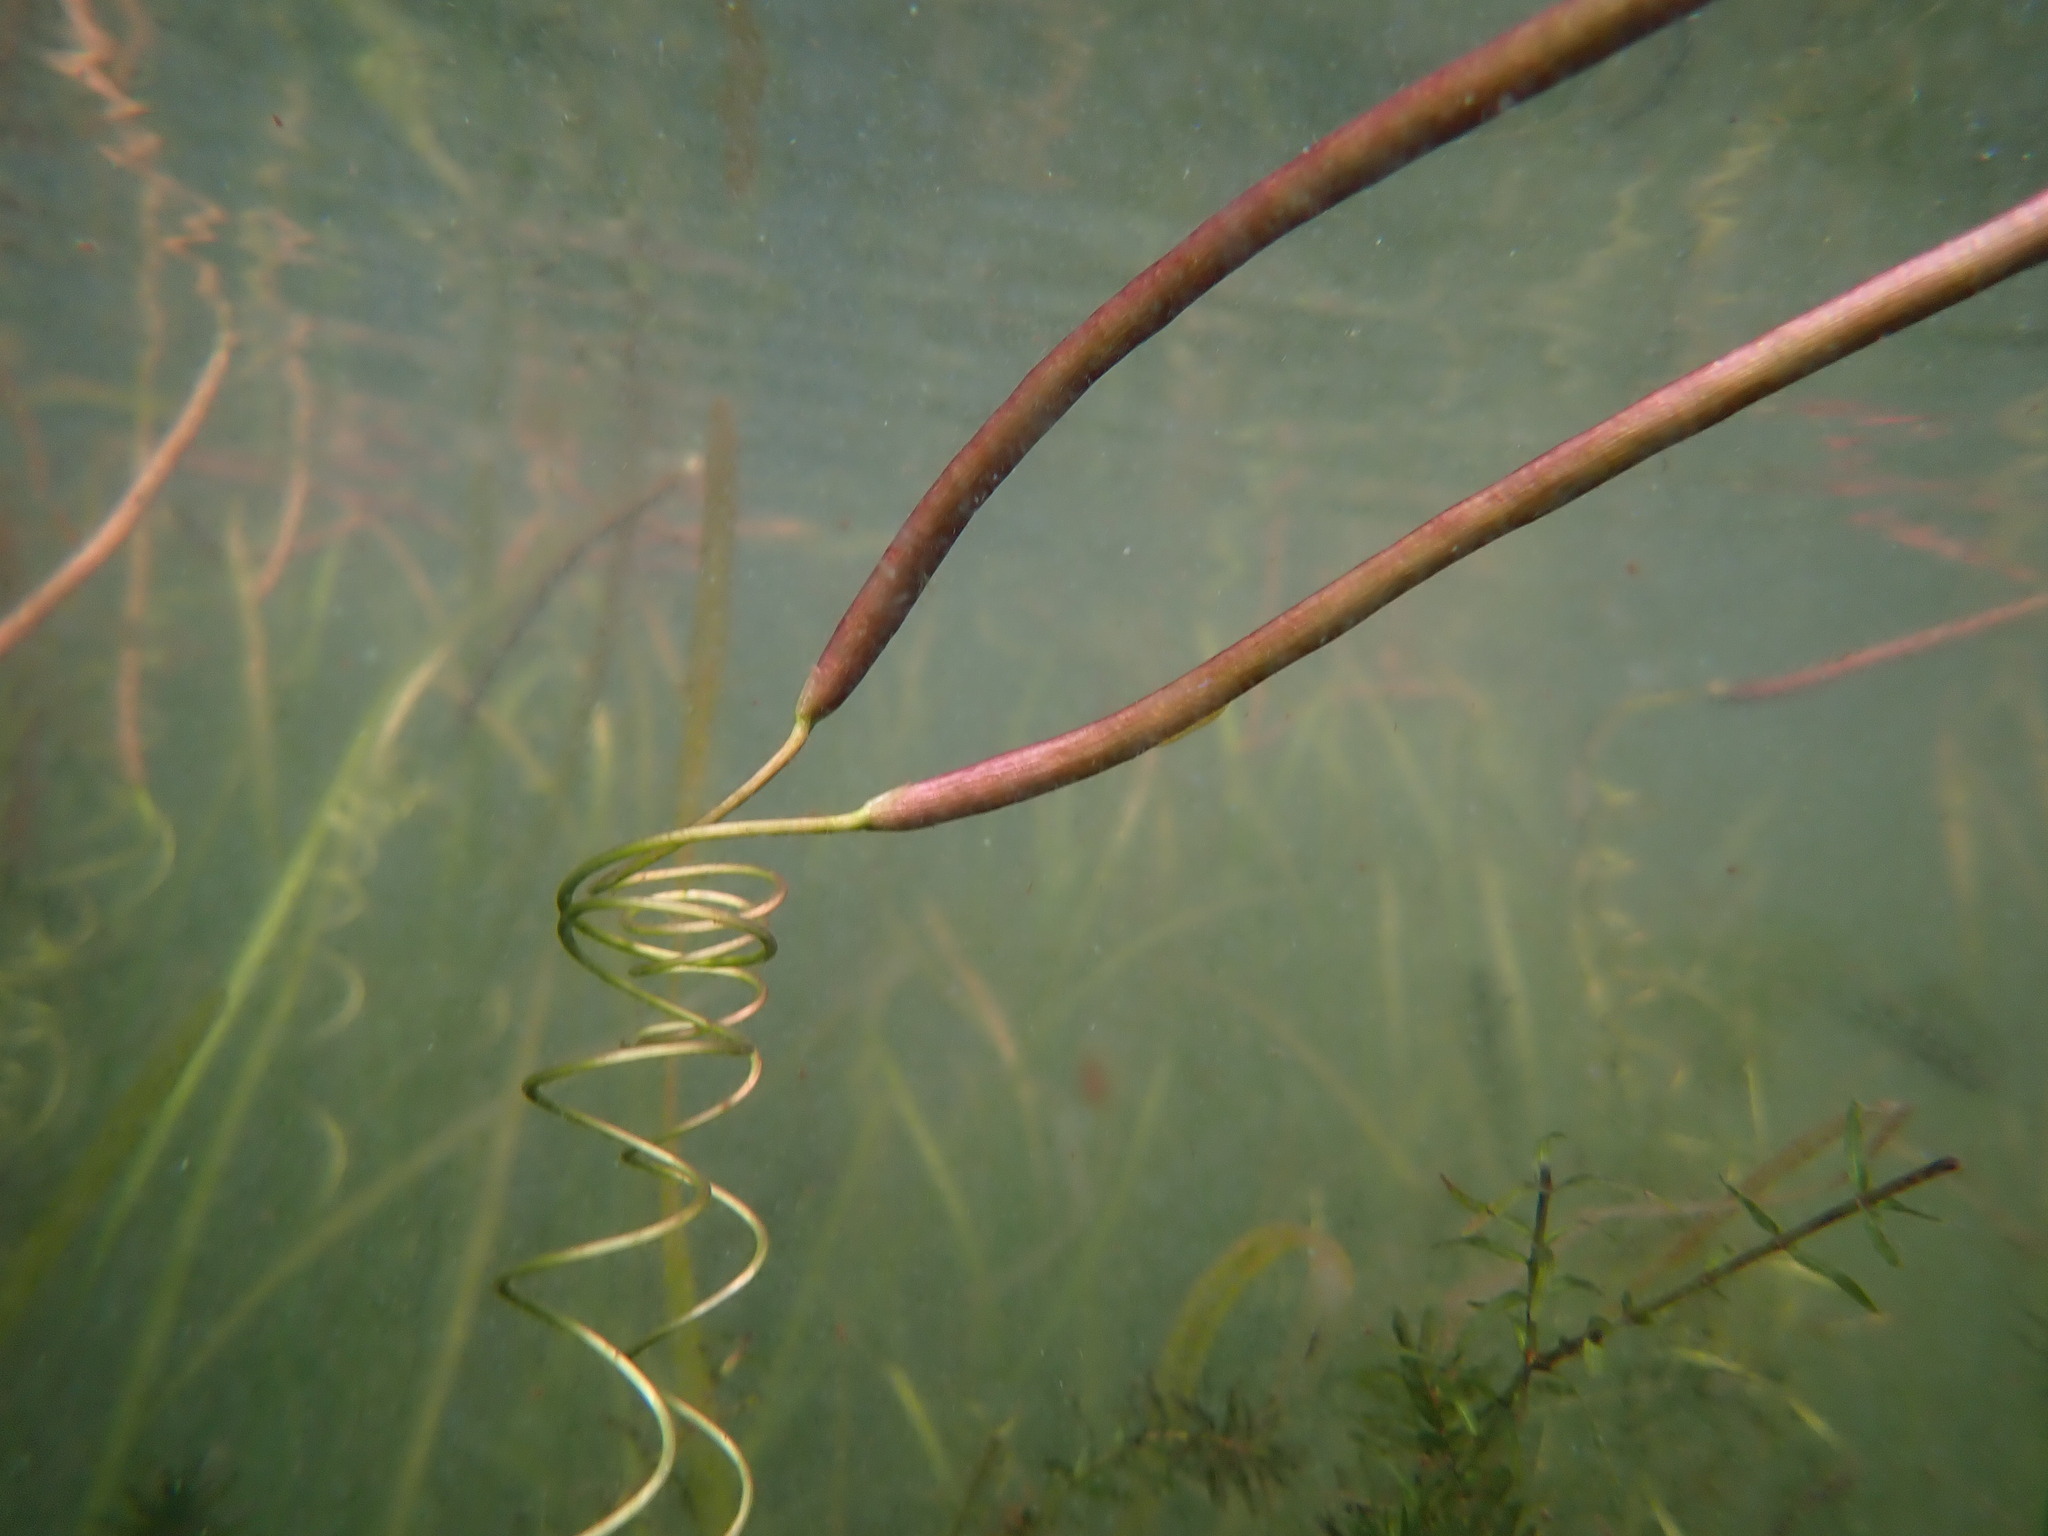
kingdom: Plantae
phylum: Tracheophyta
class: Liliopsida
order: Alismatales
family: Hydrocharitaceae
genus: Vallisneria
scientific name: Vallisneria americana
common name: American eelgrass
